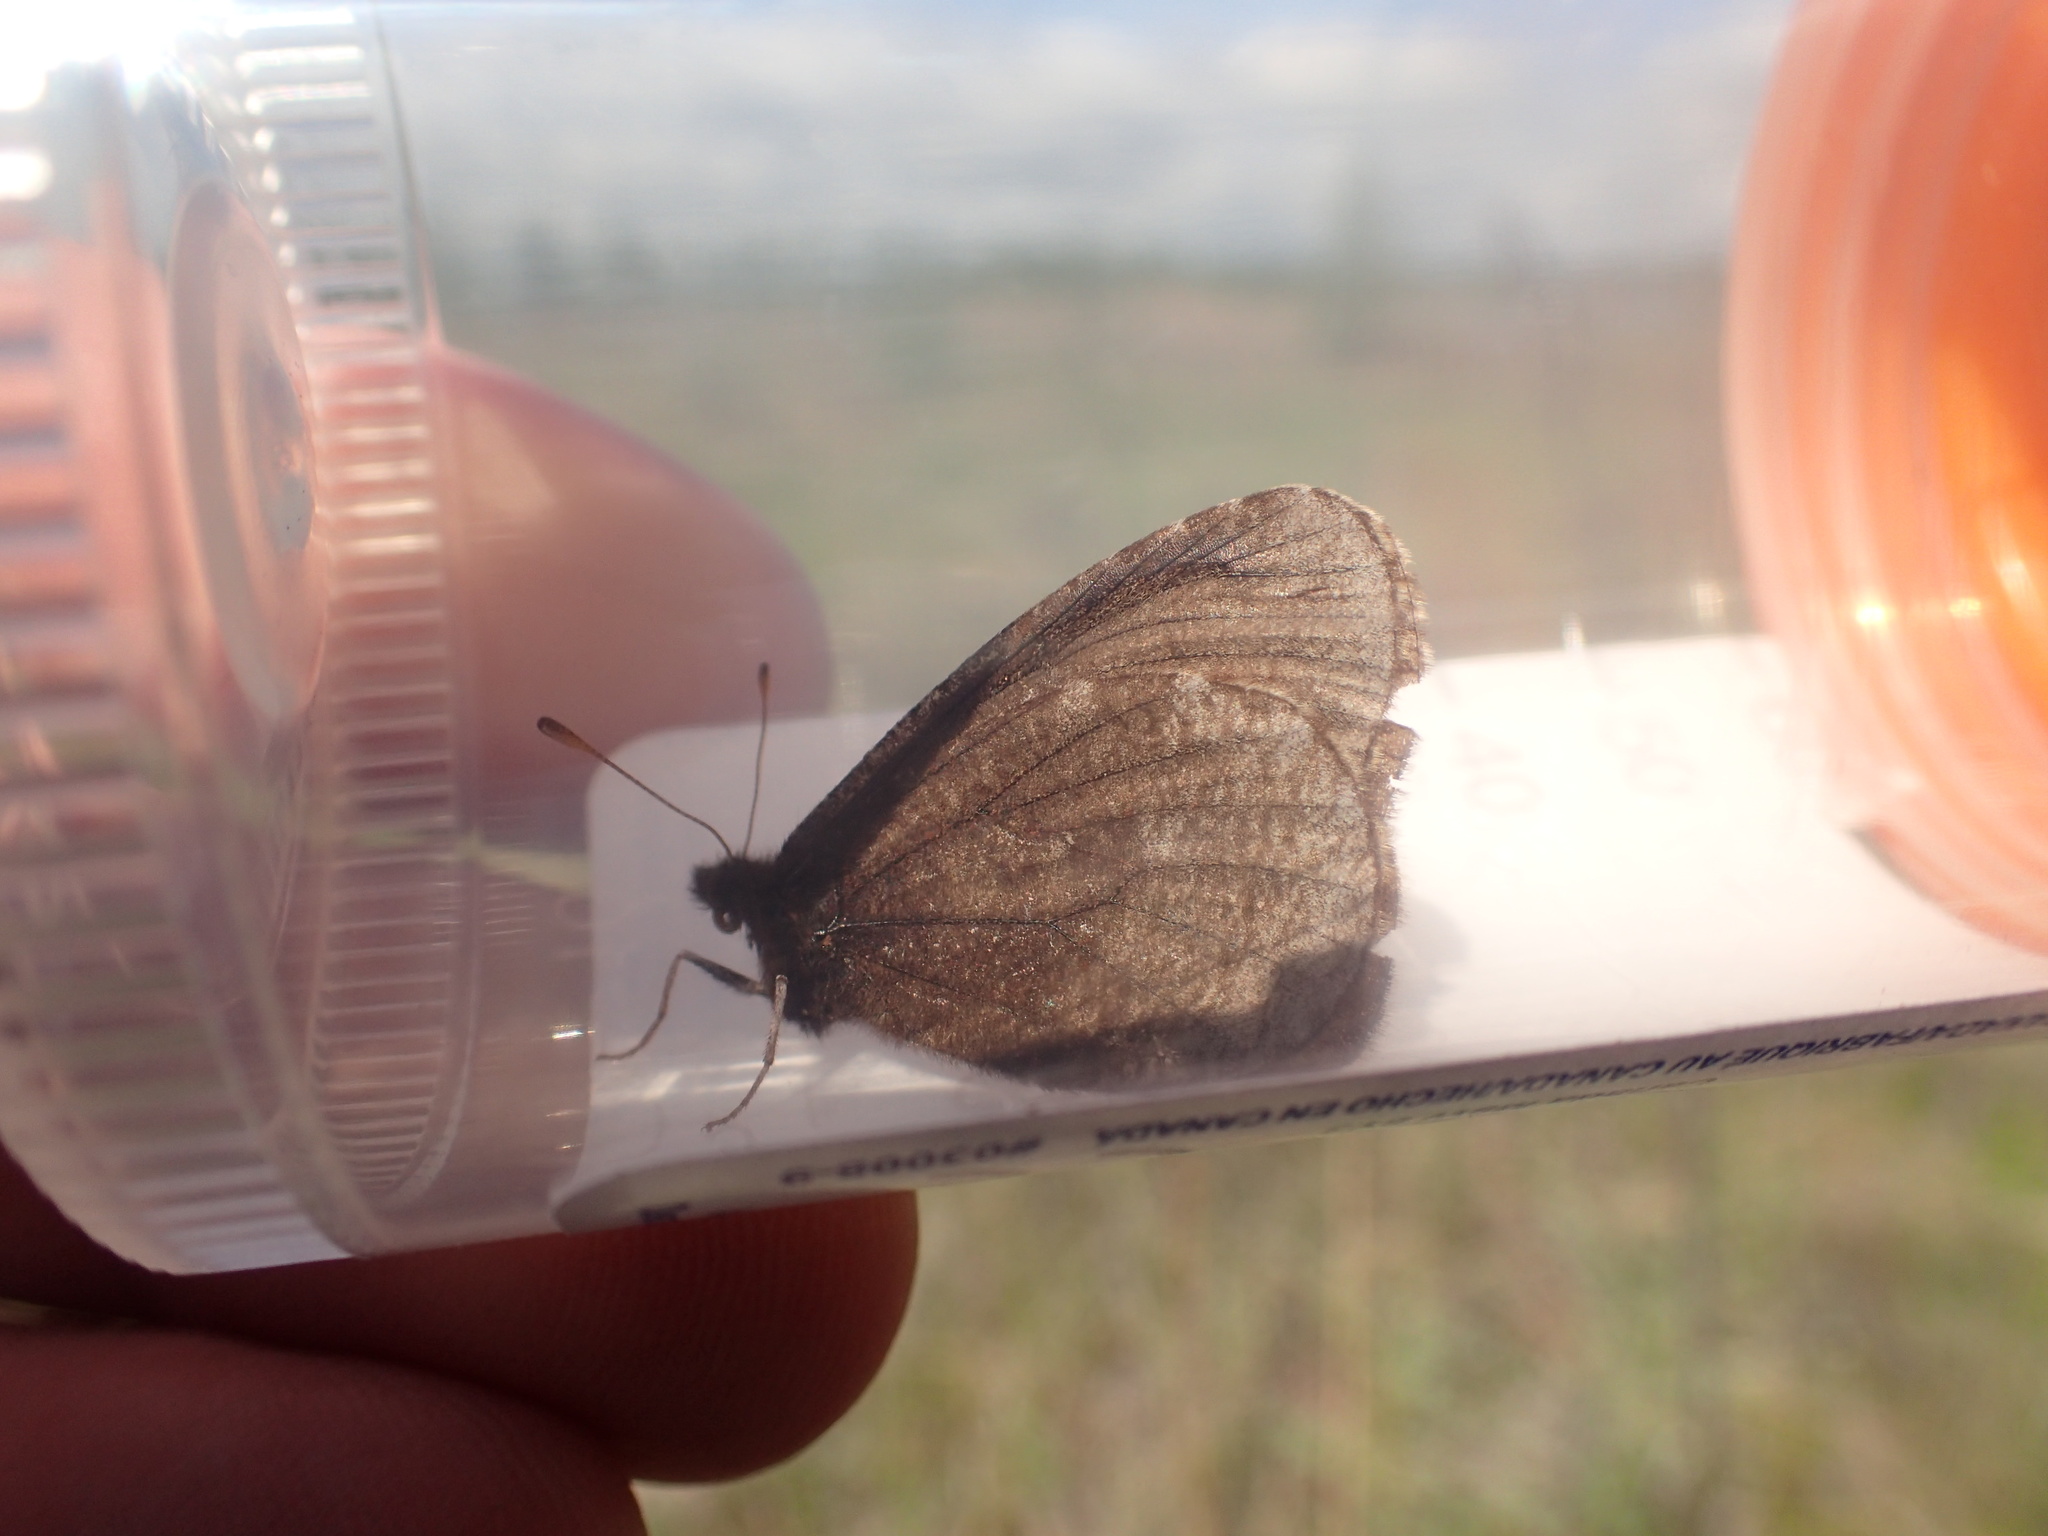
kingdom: Animalia
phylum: Arthropoda
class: Insecta
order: Lepidoptera
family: Nymphalidae
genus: Erebia
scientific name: Erebia discoidalis
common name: Red-disked alpine
